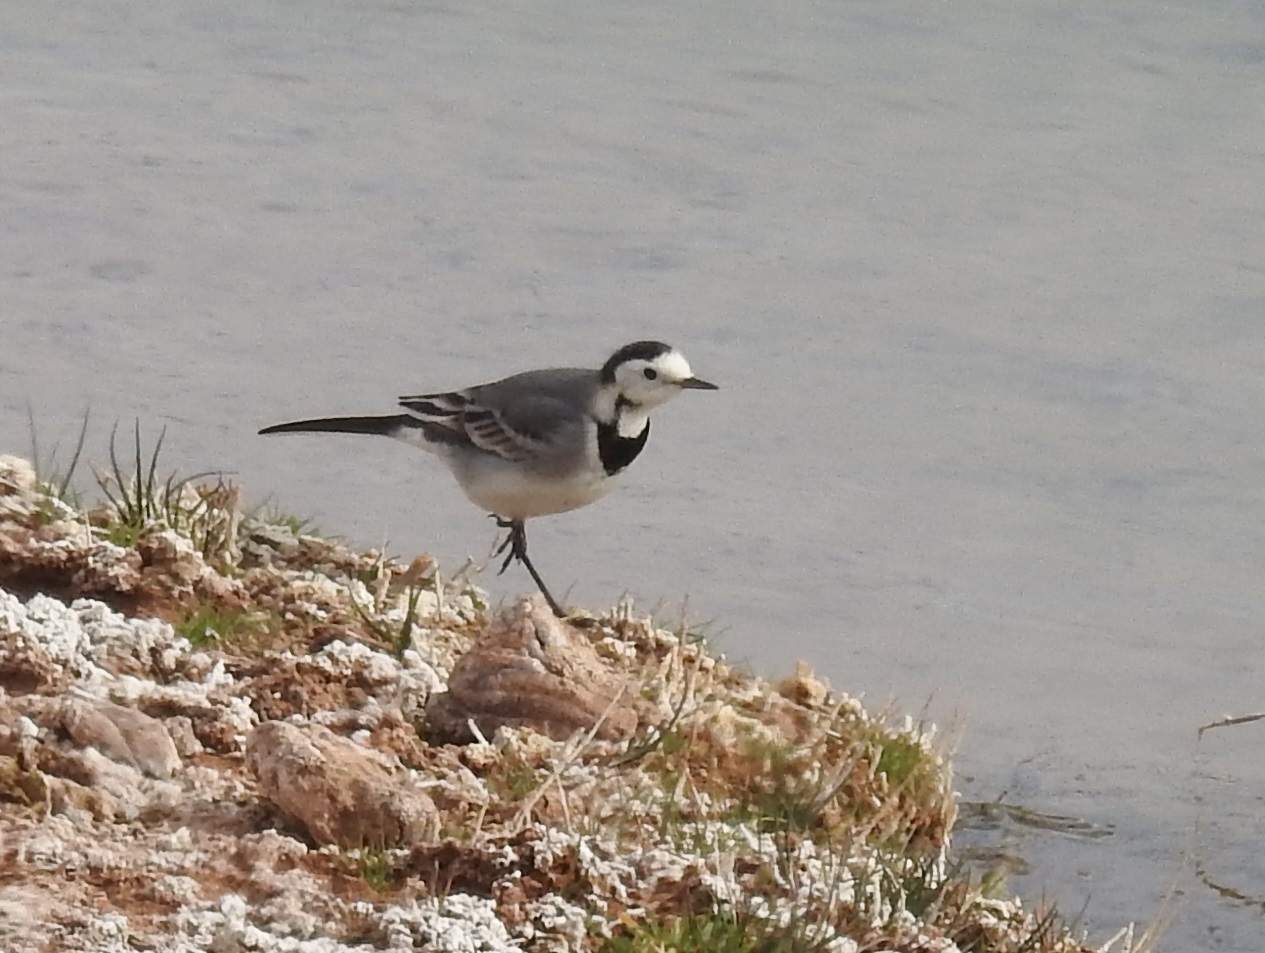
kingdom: Animalia
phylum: Chordata
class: Aves
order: Passeriformes
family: Motacillidae
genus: Motacilla
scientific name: Motacilla alba
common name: White wagtail
